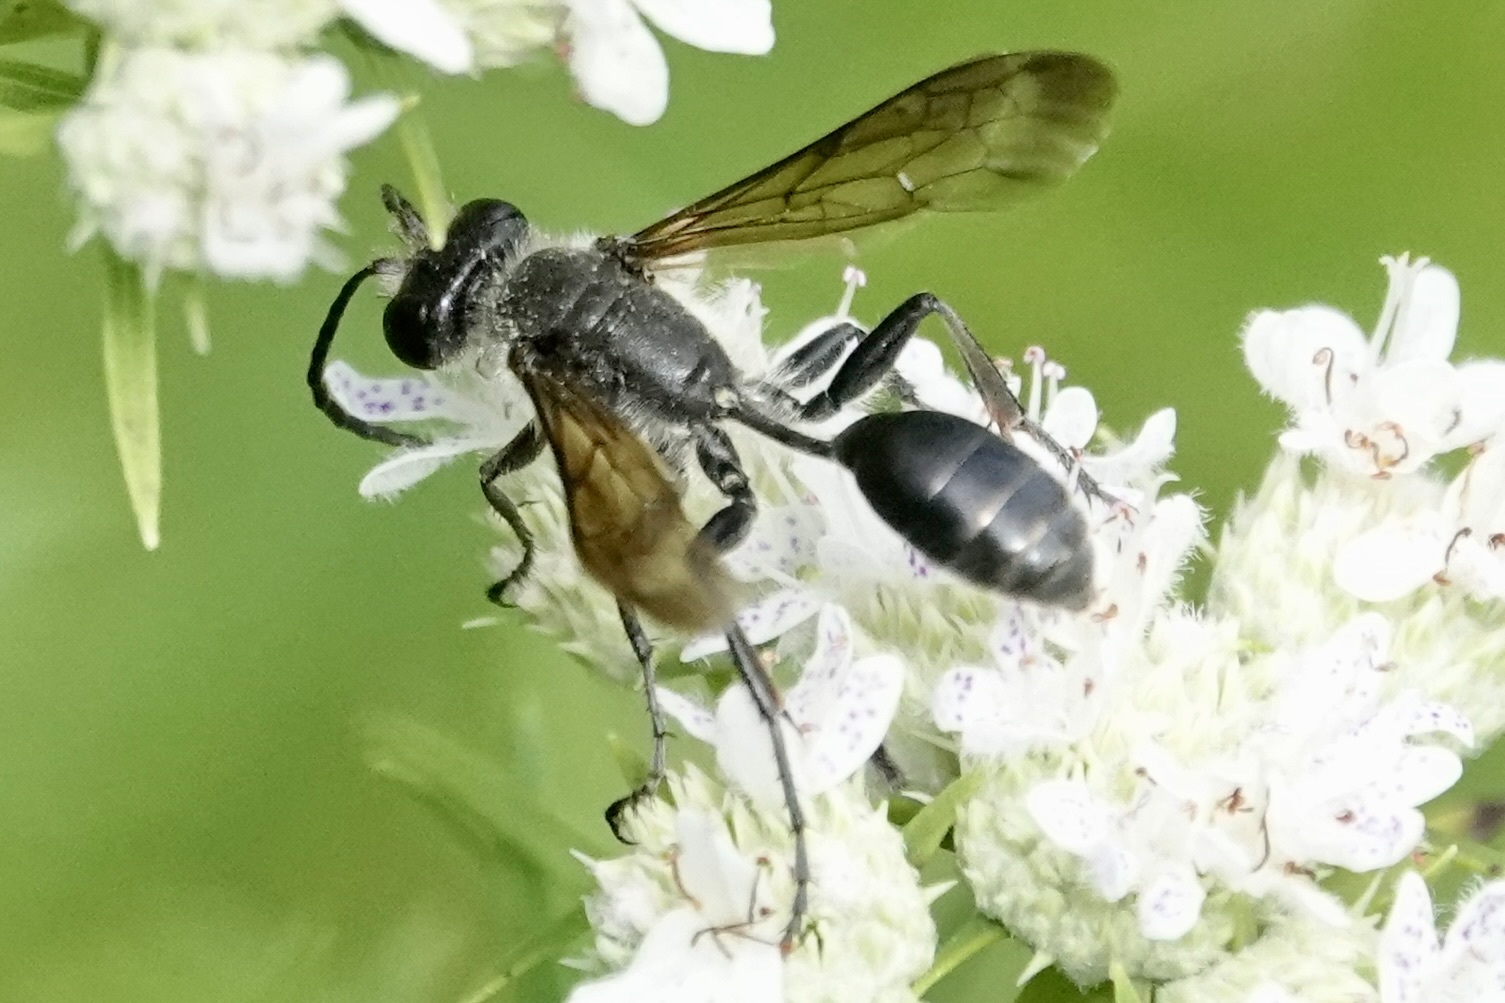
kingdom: Animalia
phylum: Arthropoda
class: Insecta
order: Hymenoptera
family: Sphecidae
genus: Isodontia
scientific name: Isodontia mexicana
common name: Mud dauber
